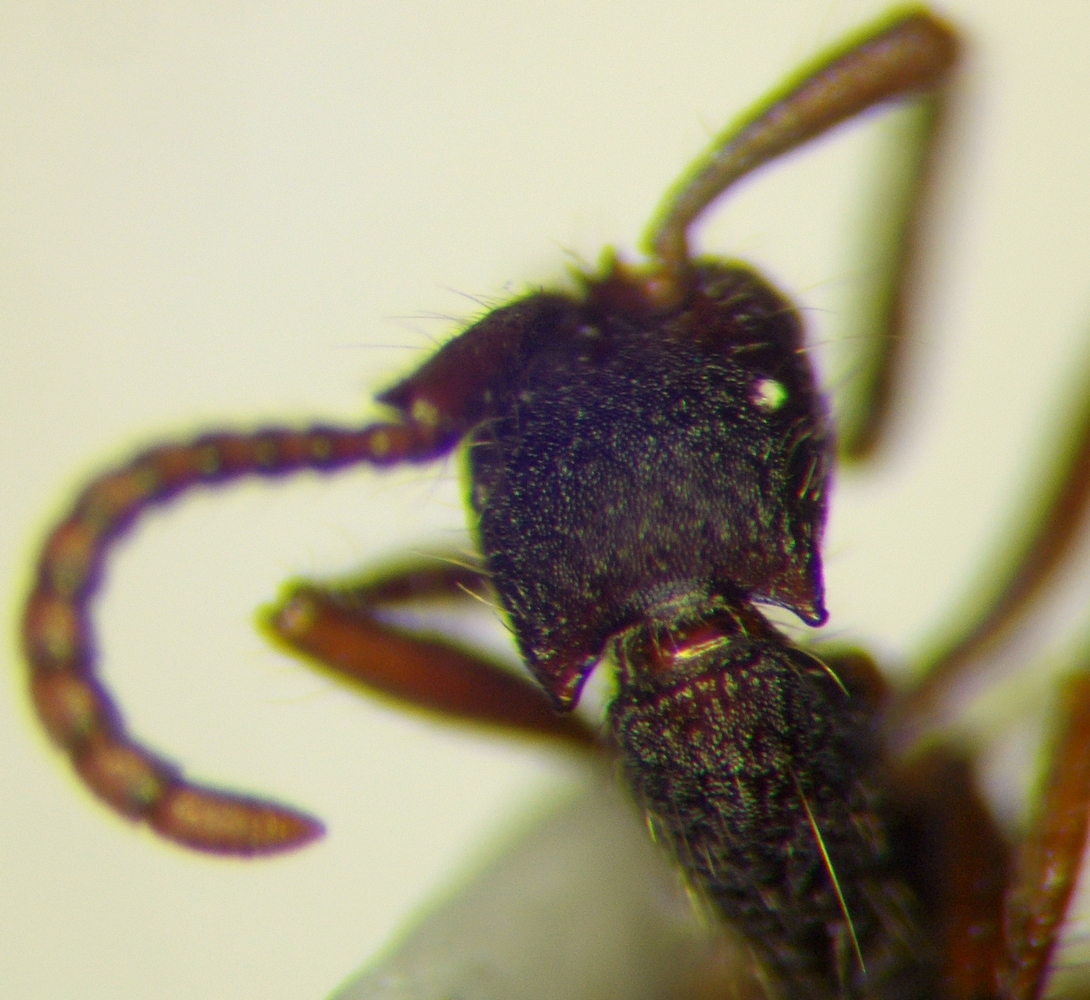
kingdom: Animalia
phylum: Arthropoda
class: Insecta
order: Hymenoptera
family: Formicidae
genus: Neivamyrmex
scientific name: Neivamyrmex cornutus
